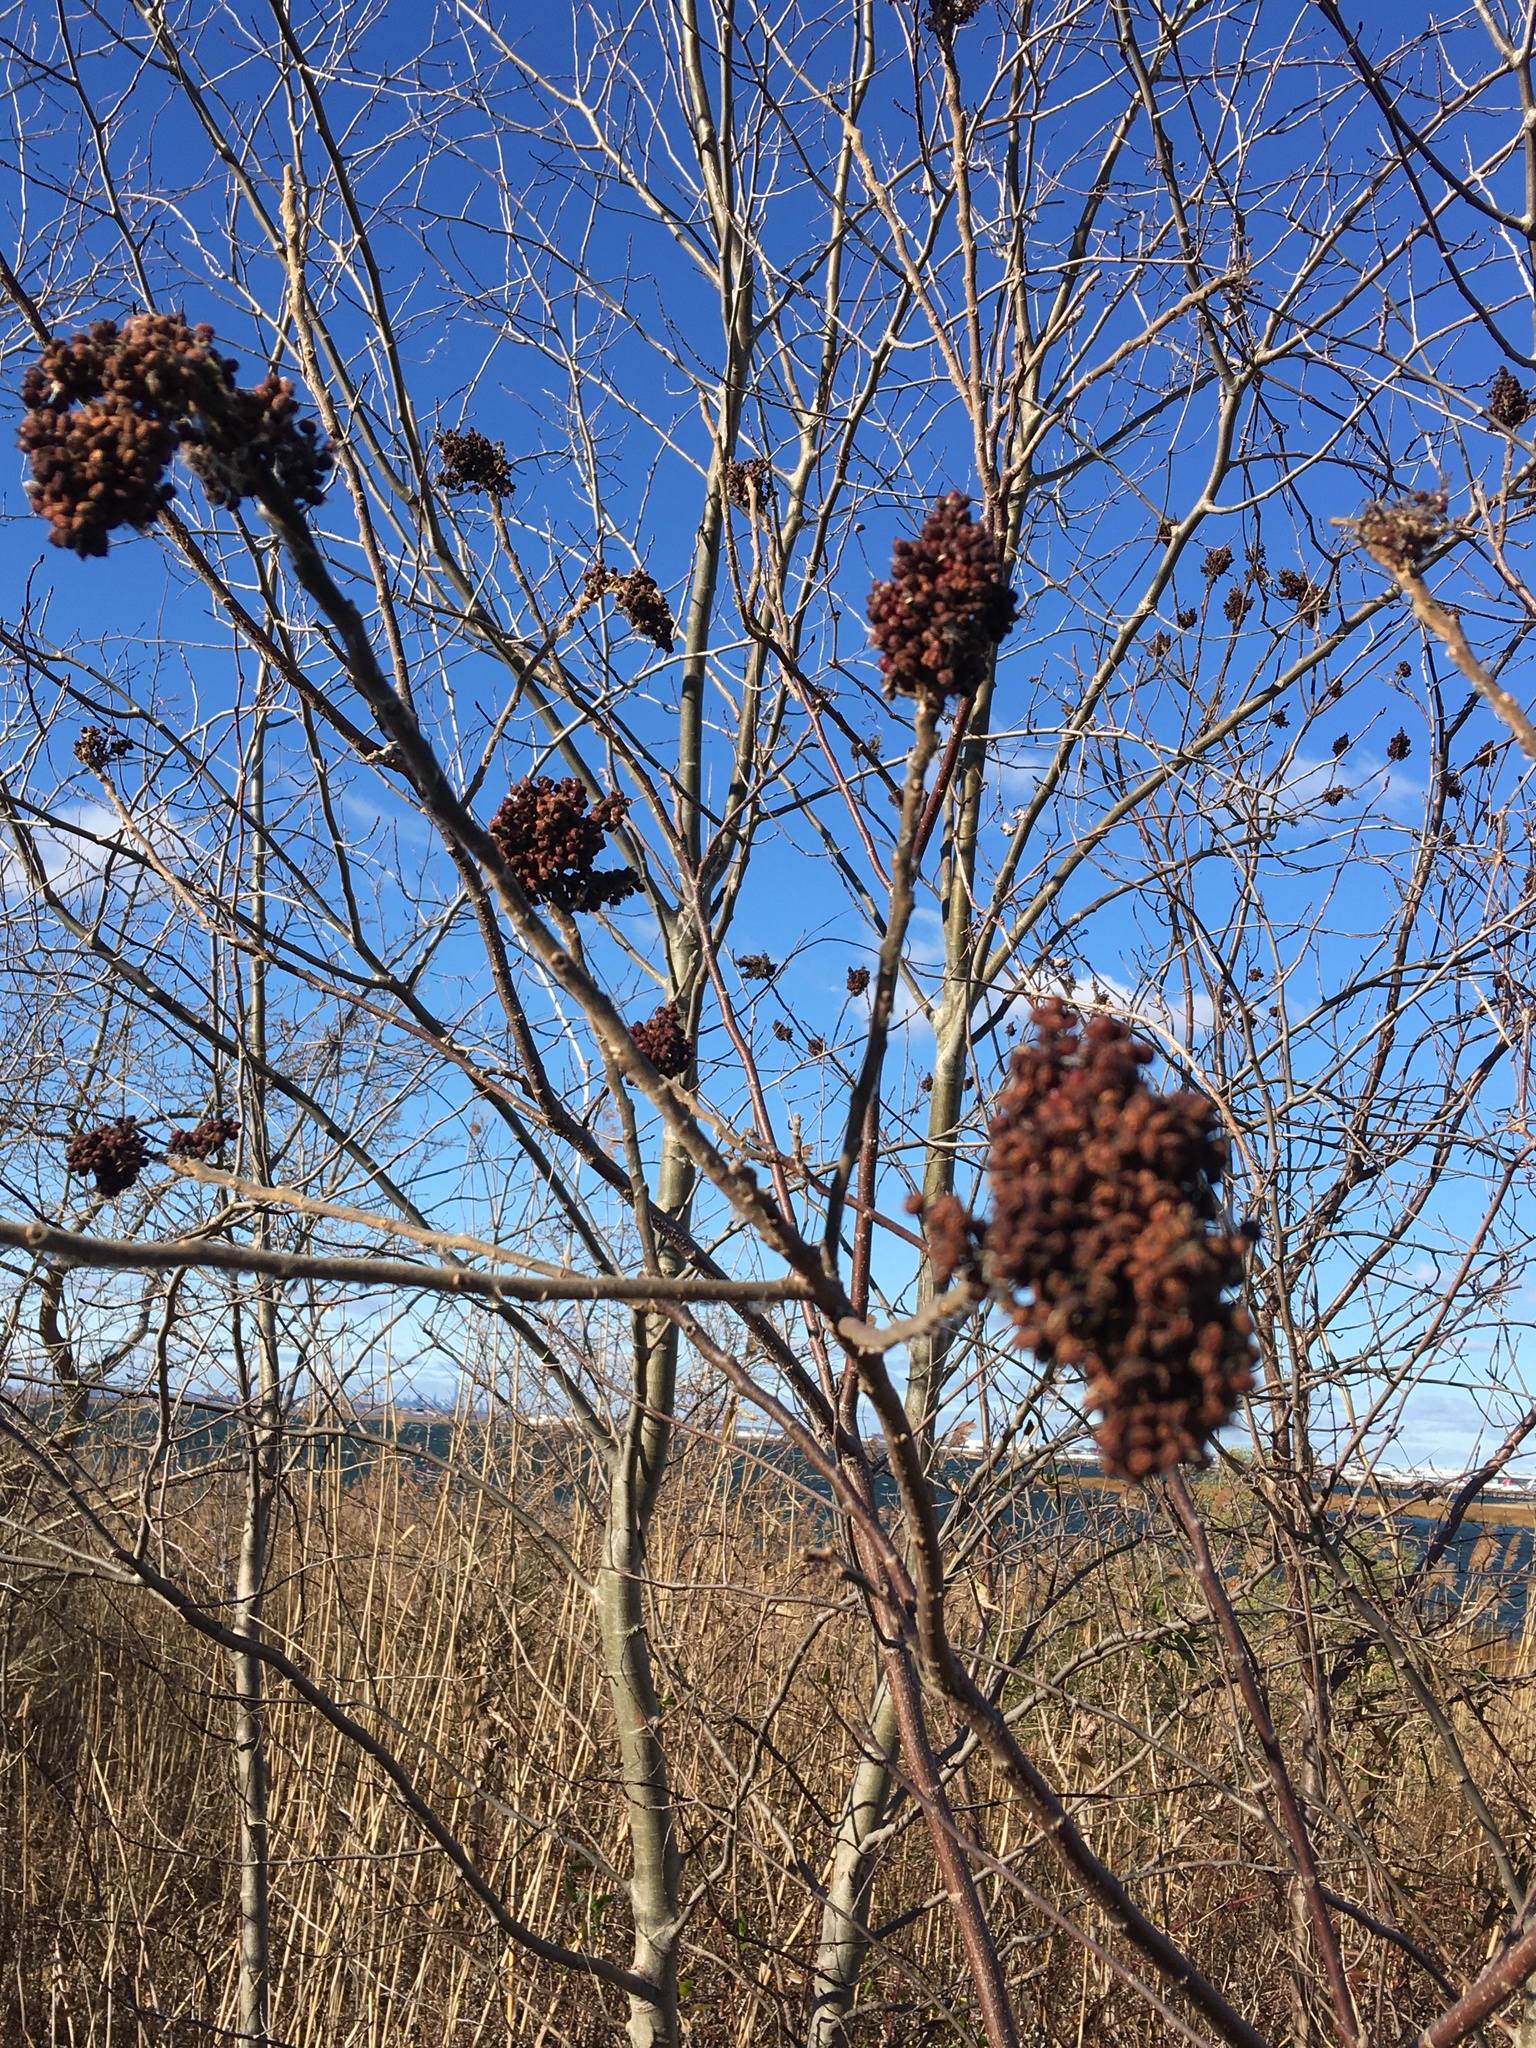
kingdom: Plantae
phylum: Tracheophyta
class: Magnoliopsida
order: Sapindales
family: Anacardiaceae
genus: Rhus
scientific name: Rhus copallina
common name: Shining sumac
